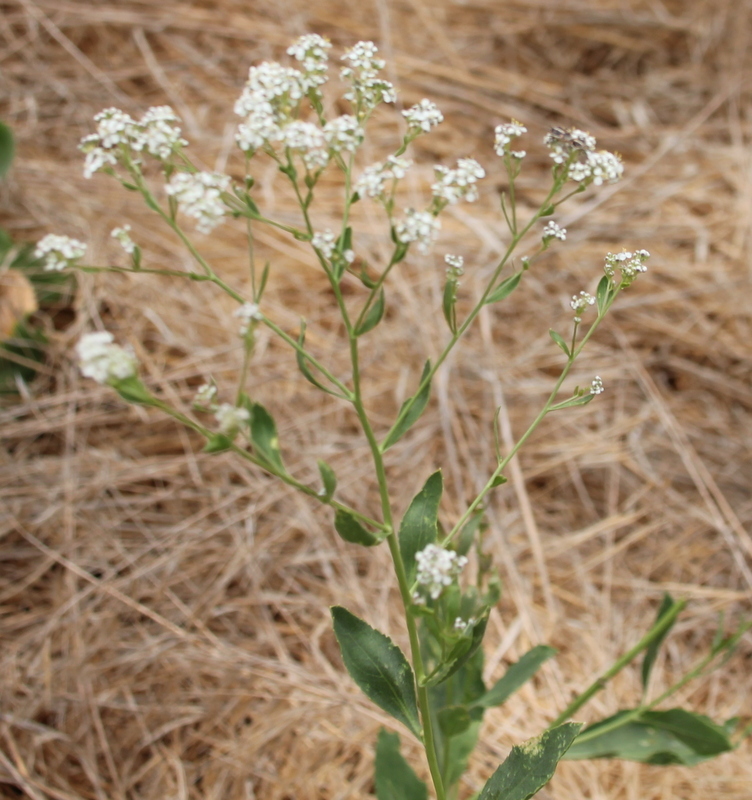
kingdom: Plantae
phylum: Tracheophyta
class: Magnoliopsida
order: Brassicales
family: Brassicaceae
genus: Lepidium
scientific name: Lepidium latifolium
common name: Dittander
